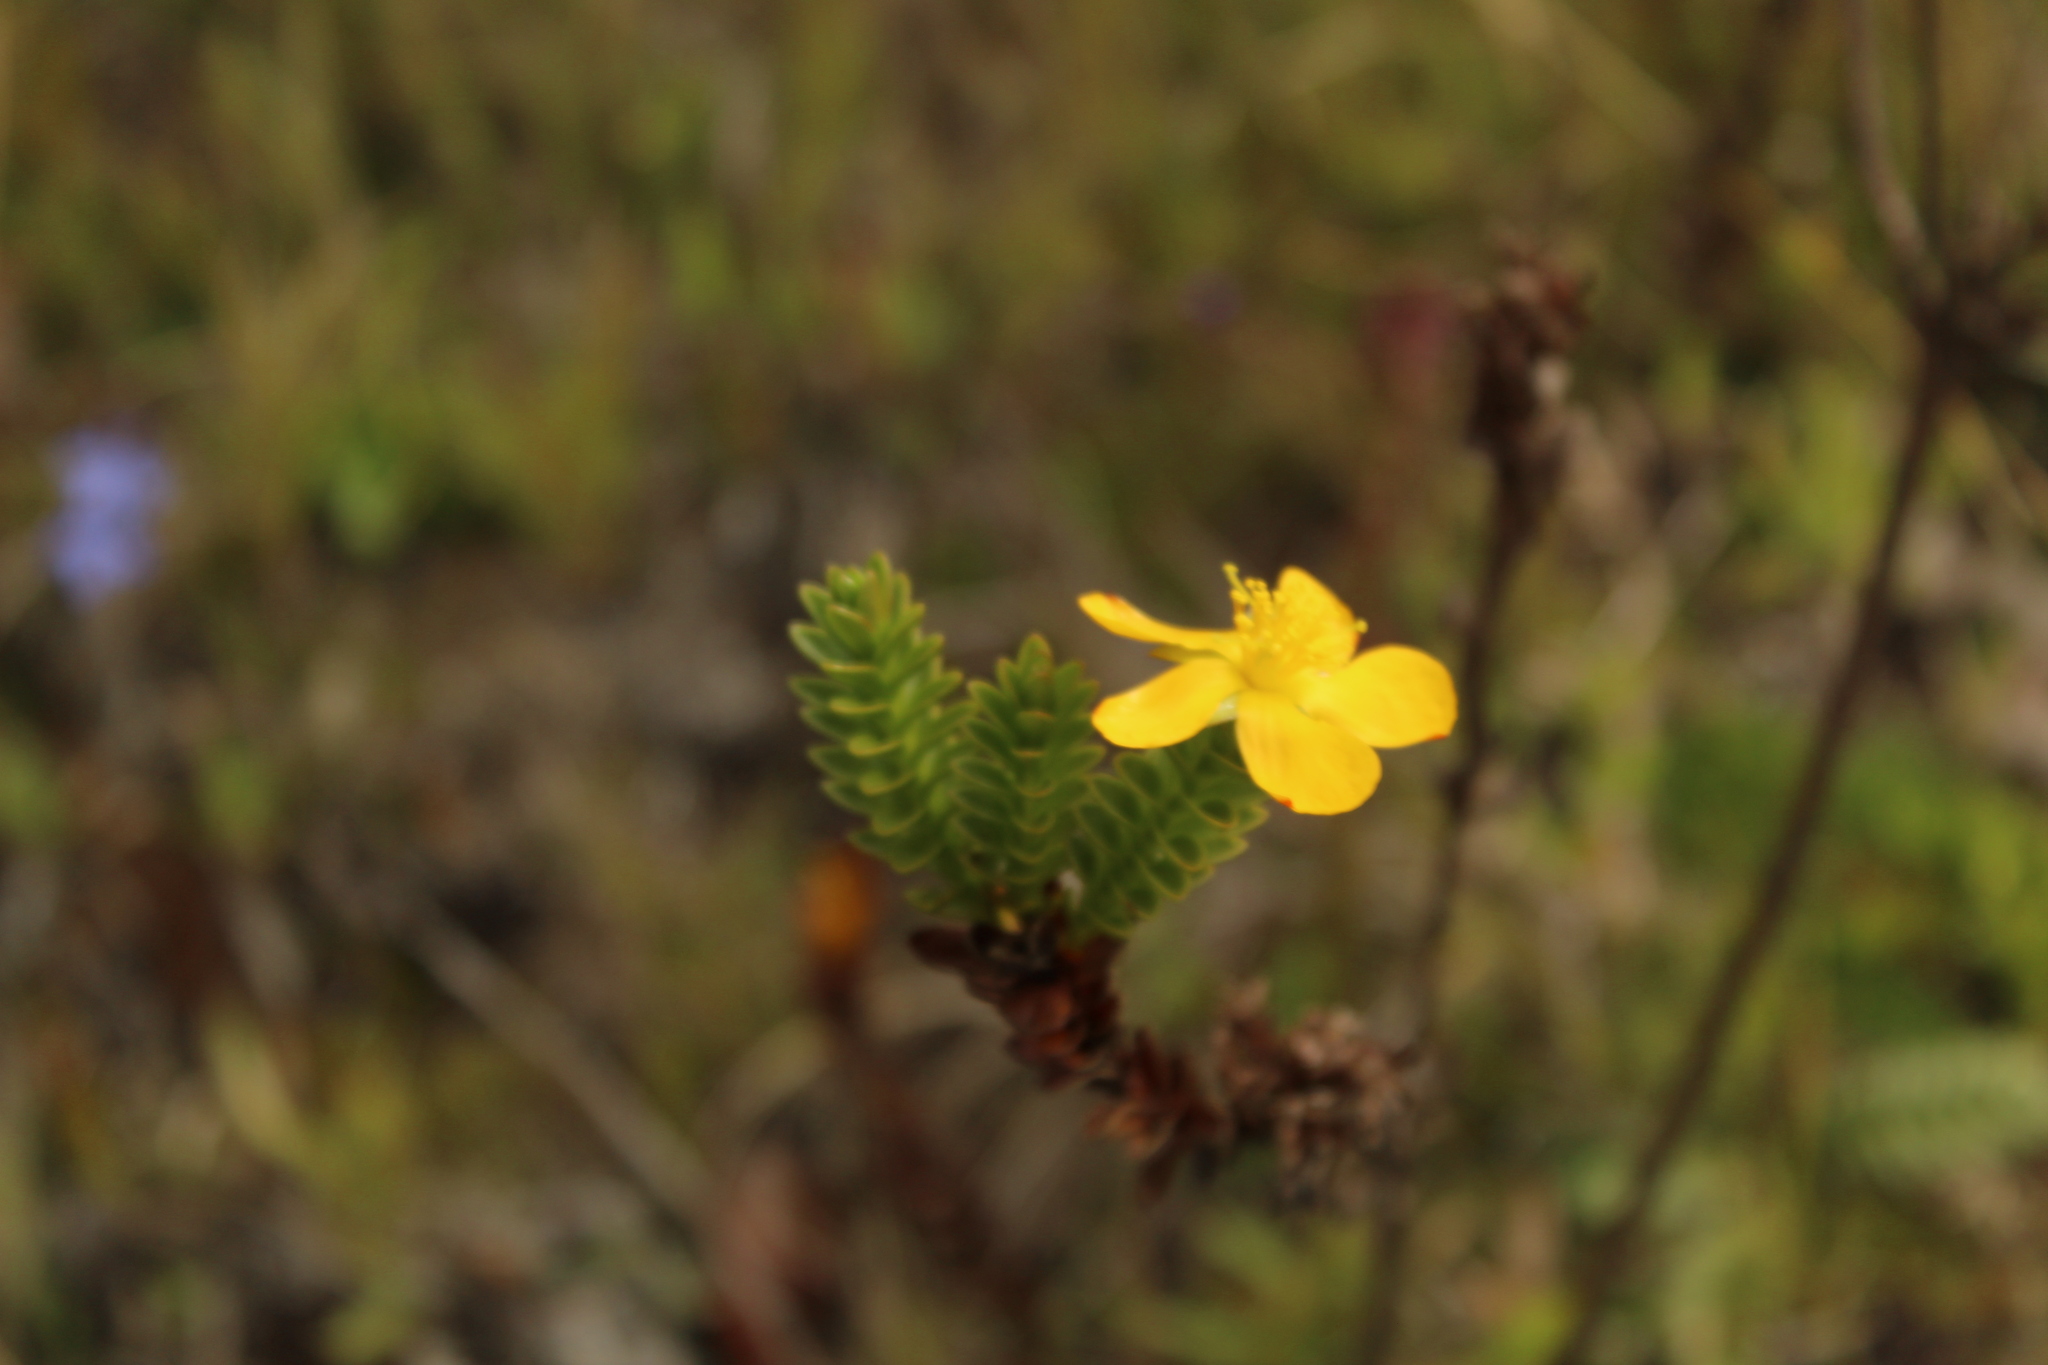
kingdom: Plantae
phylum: Tracheophyta
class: Magnoliopsida
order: Malpighiales
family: Hypericaceae
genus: Hypericum
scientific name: Hypericum mexicanum
